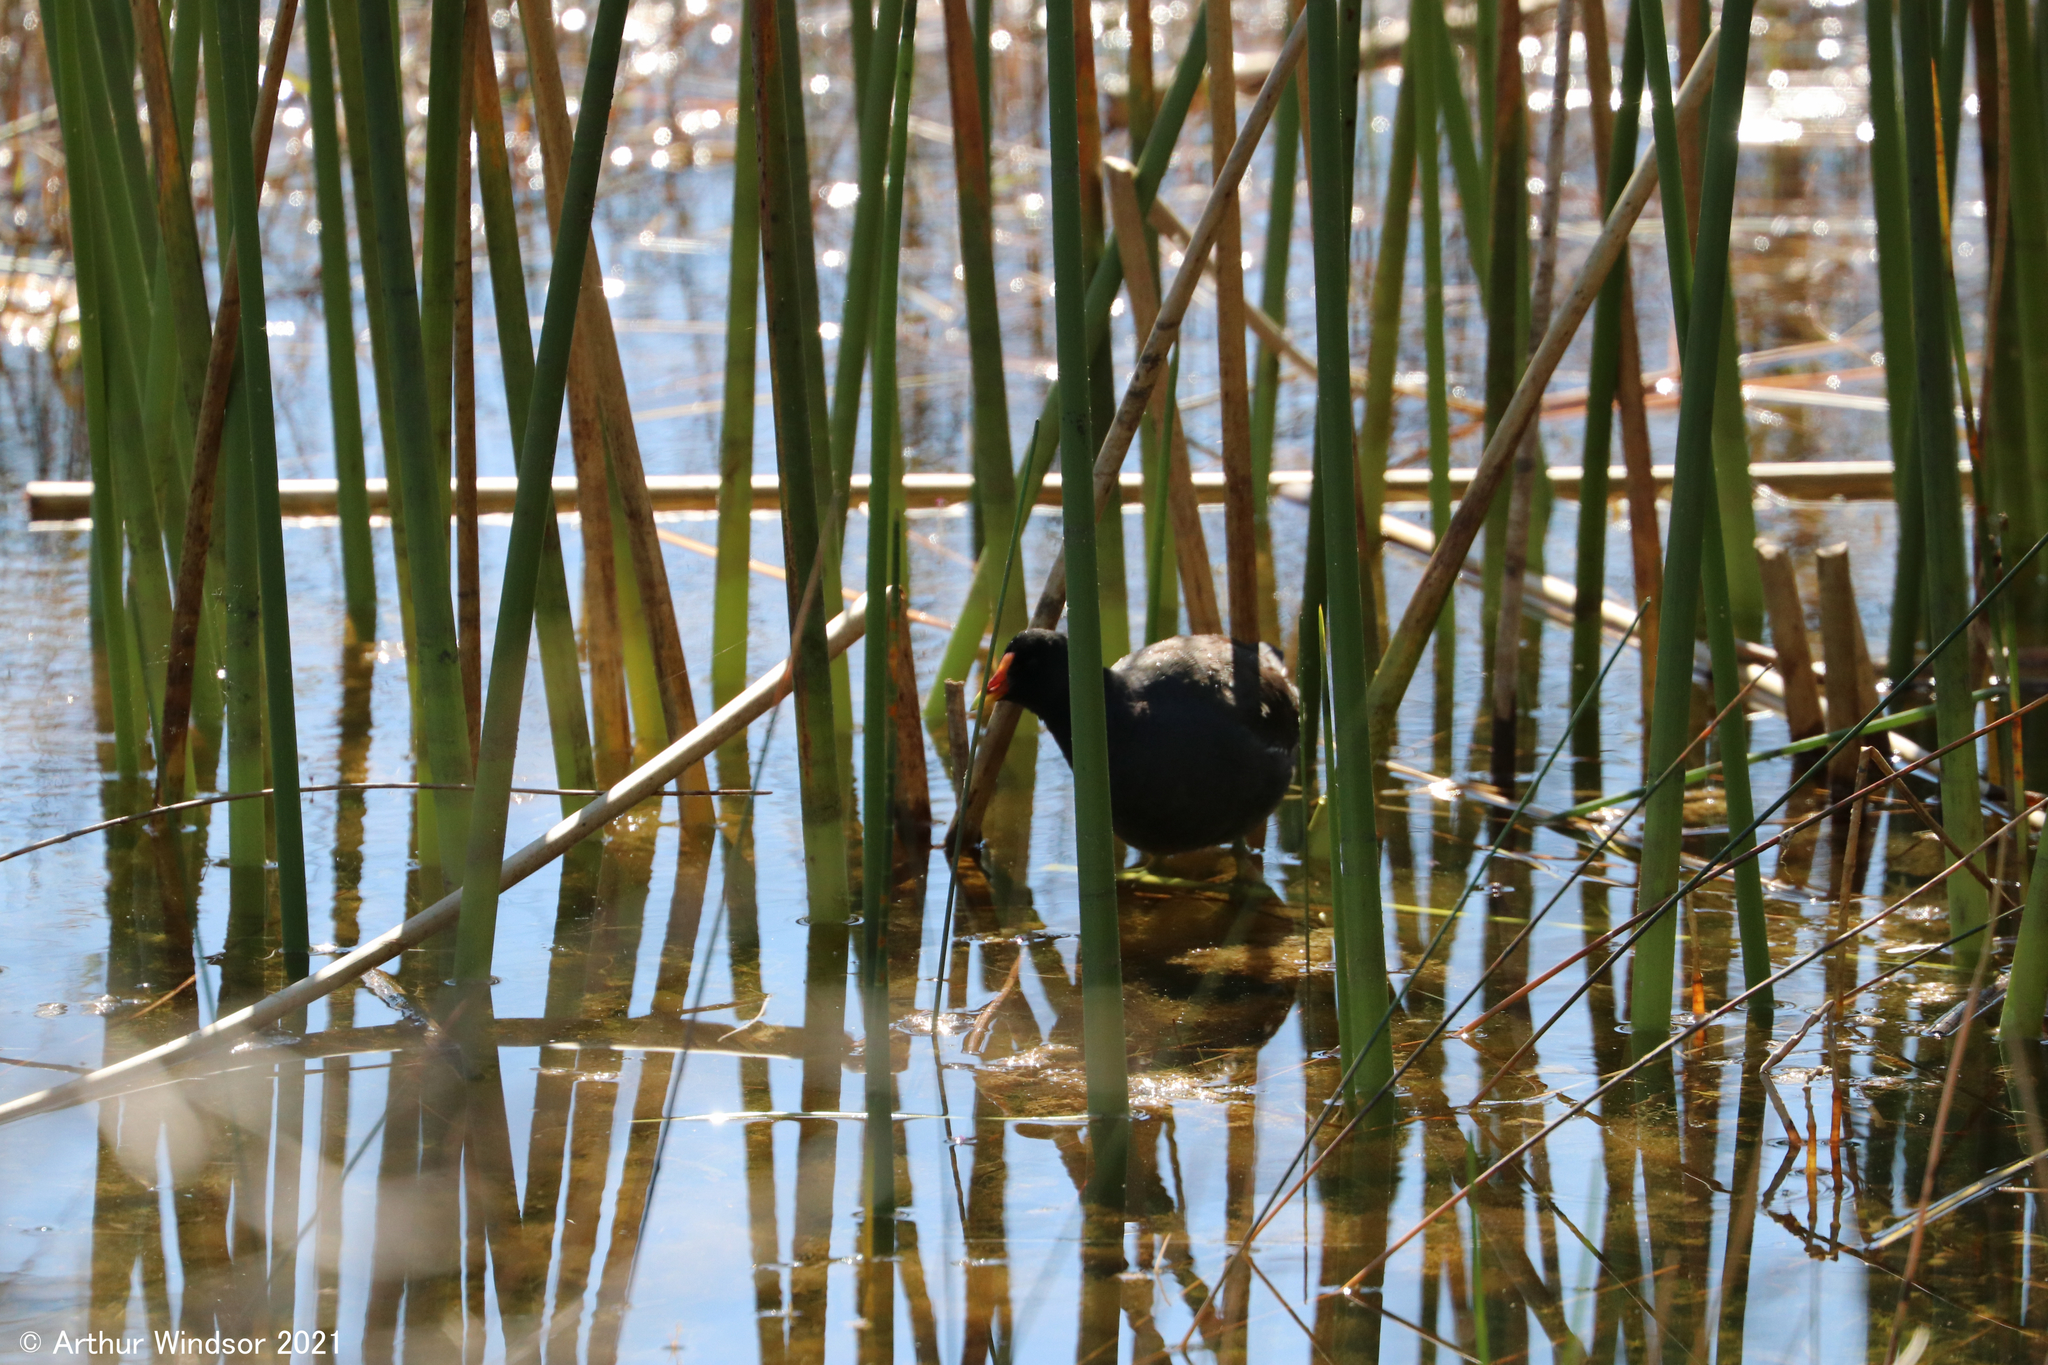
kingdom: Animalia
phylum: Chordata
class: Aves
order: Gruiformes
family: Rallidae
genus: Gallinula
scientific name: Gallinula chloropus
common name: Common moorhen
